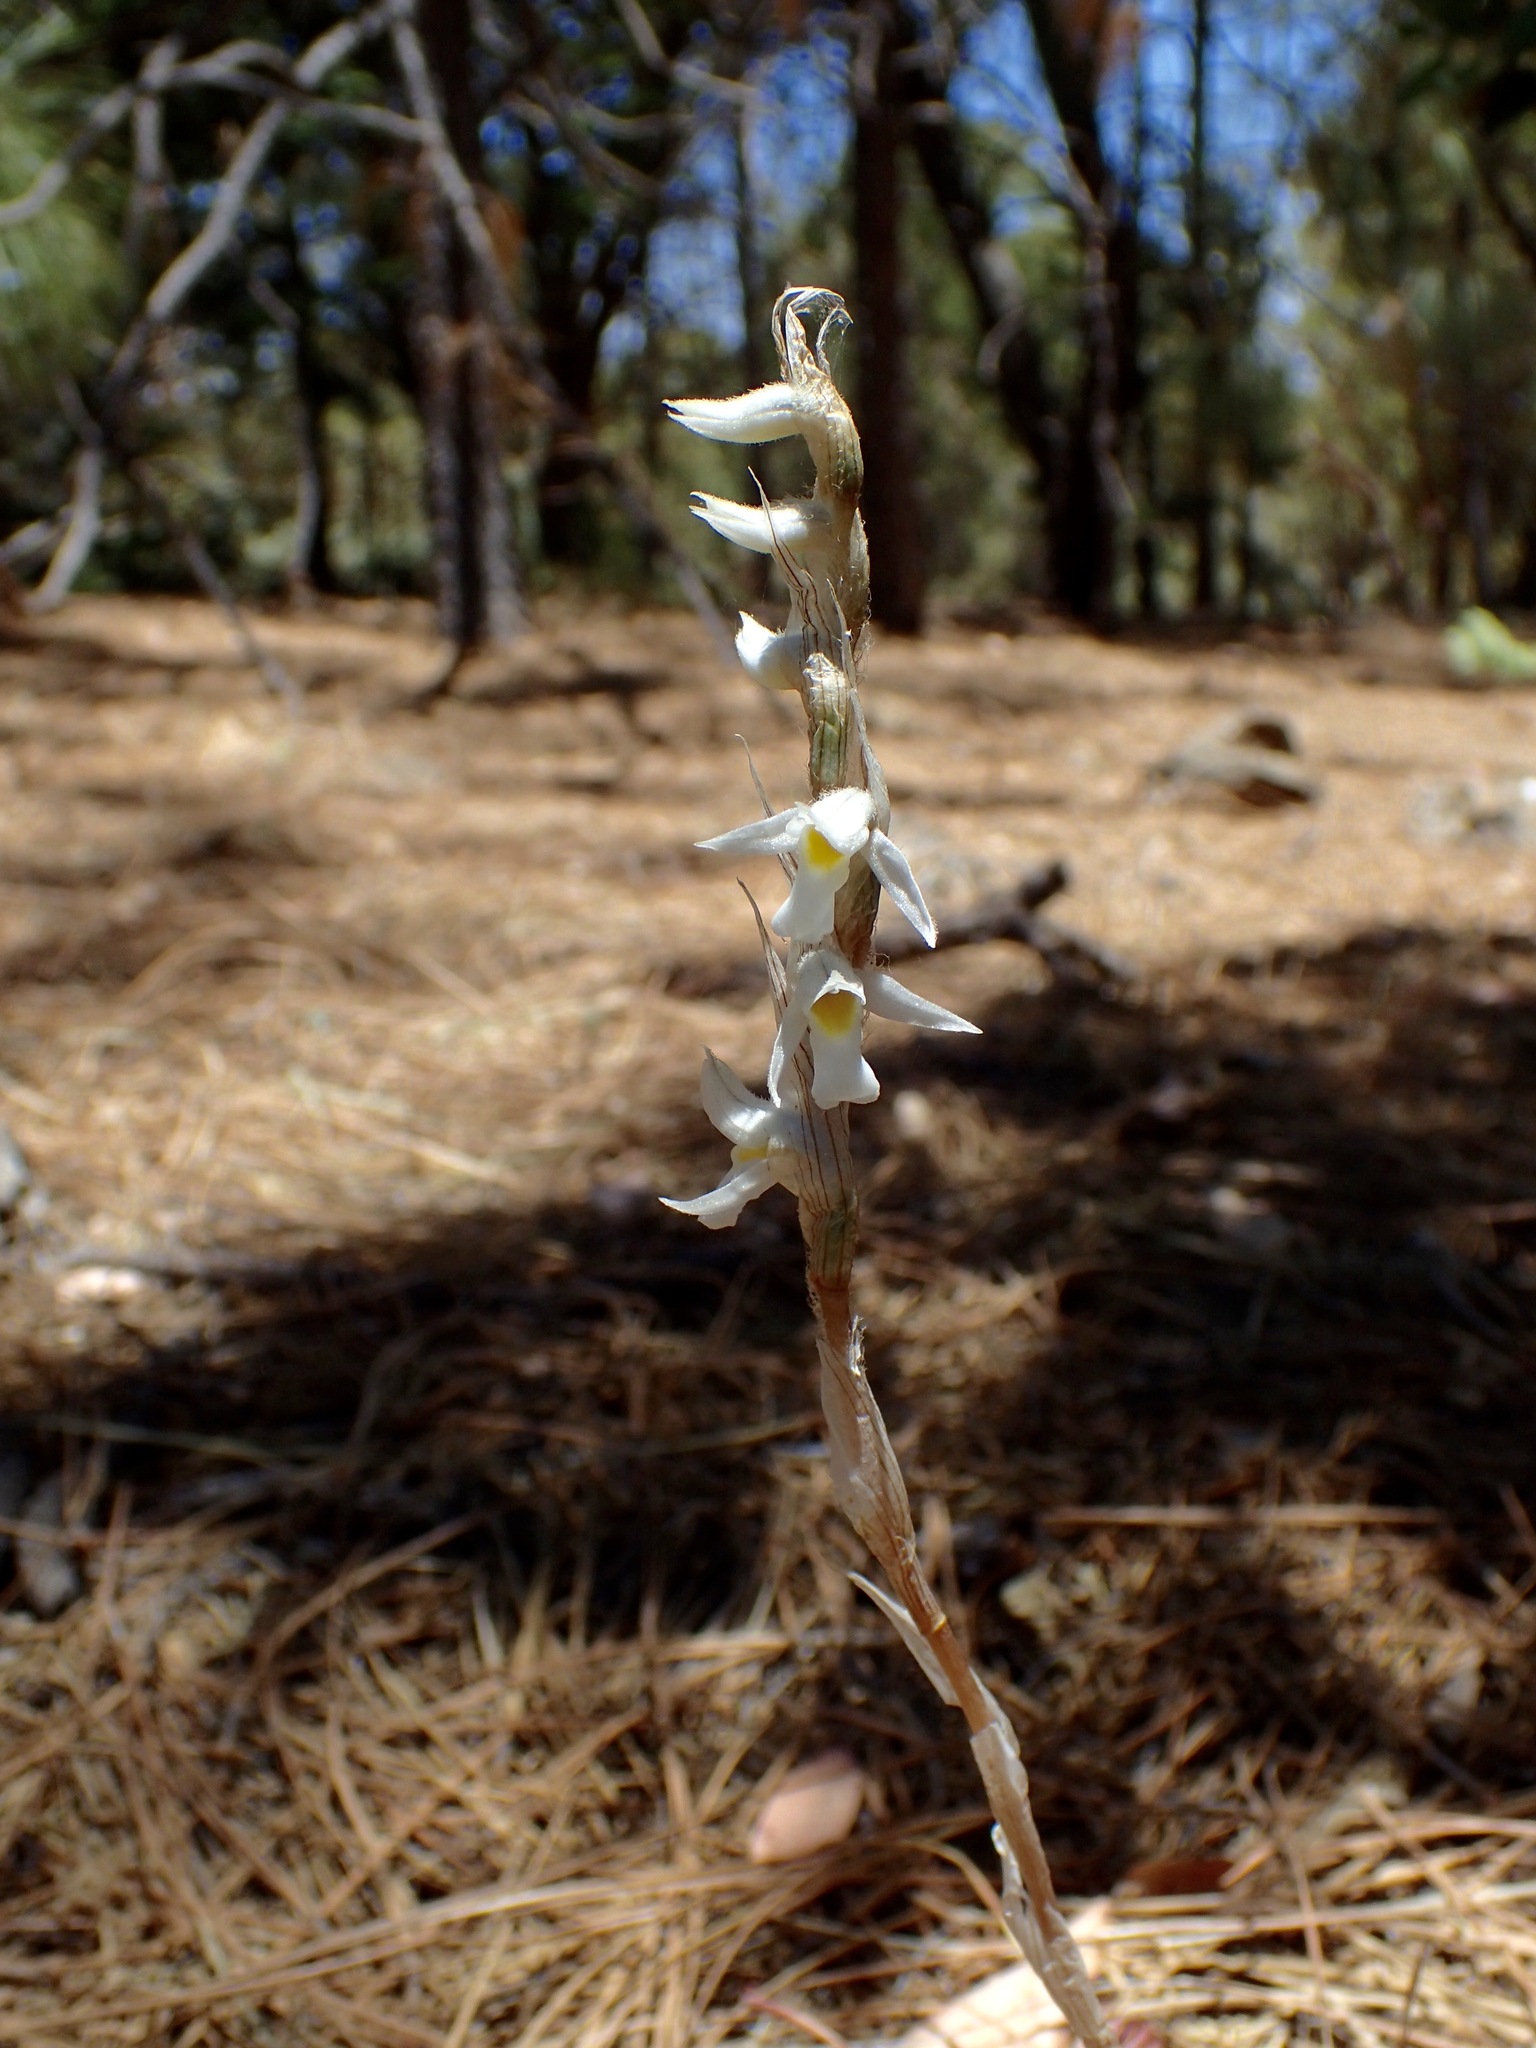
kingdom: Plantae
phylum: Tracheophyta
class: Liliopsida
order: Asparagales
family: Orchidaceae
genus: Deiregyne
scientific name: Deiregyne eriophora
